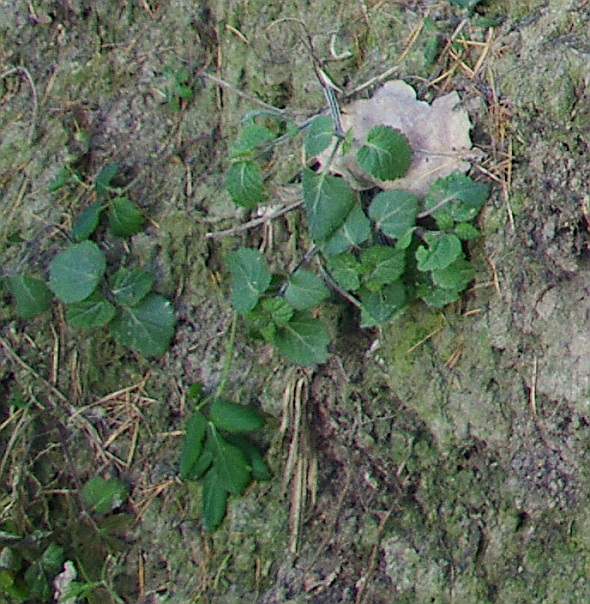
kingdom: Plantae
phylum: Tracheophyta
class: Magnoliopsida
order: Lamiales
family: Lamiaceae
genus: Lamium
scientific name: Lamium galeobdolon
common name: Yellow archangel
